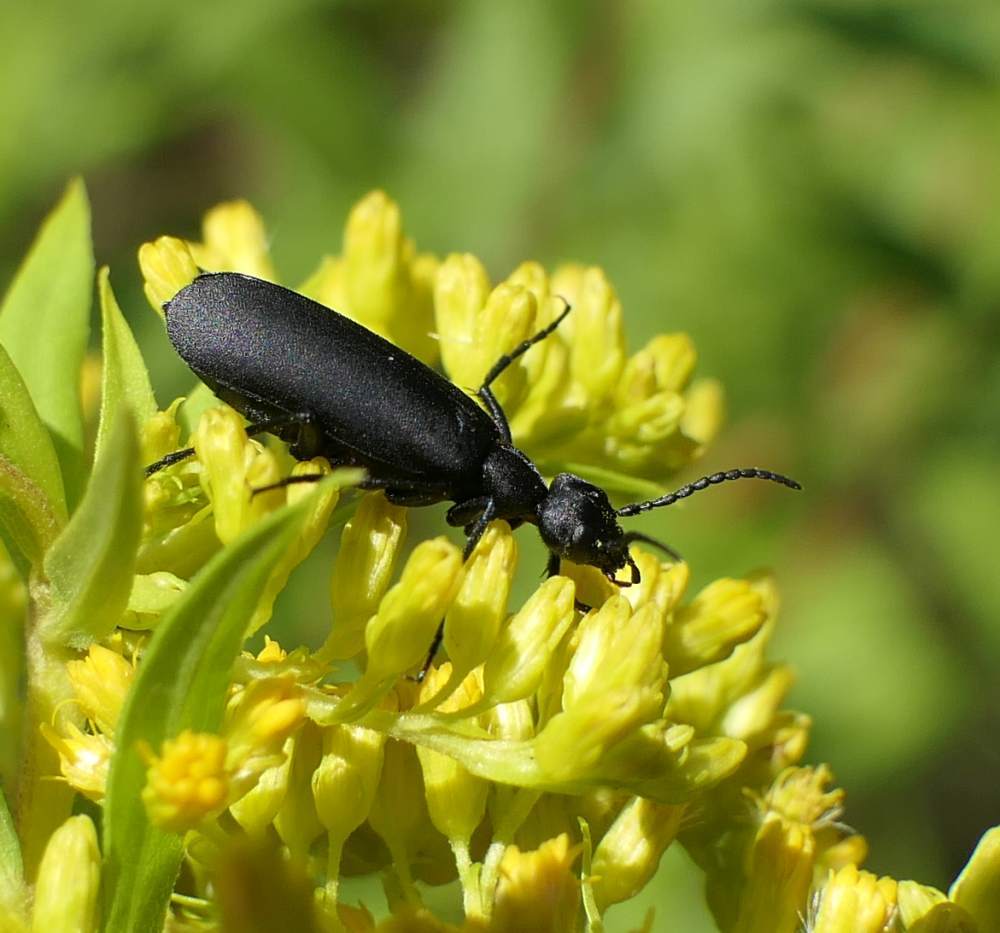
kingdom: Animalia
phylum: Arthropoda
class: Insecta
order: Coleoptera
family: Meloidae
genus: Epicauta
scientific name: Epicauta pensylvanica
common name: Black blister beetle
